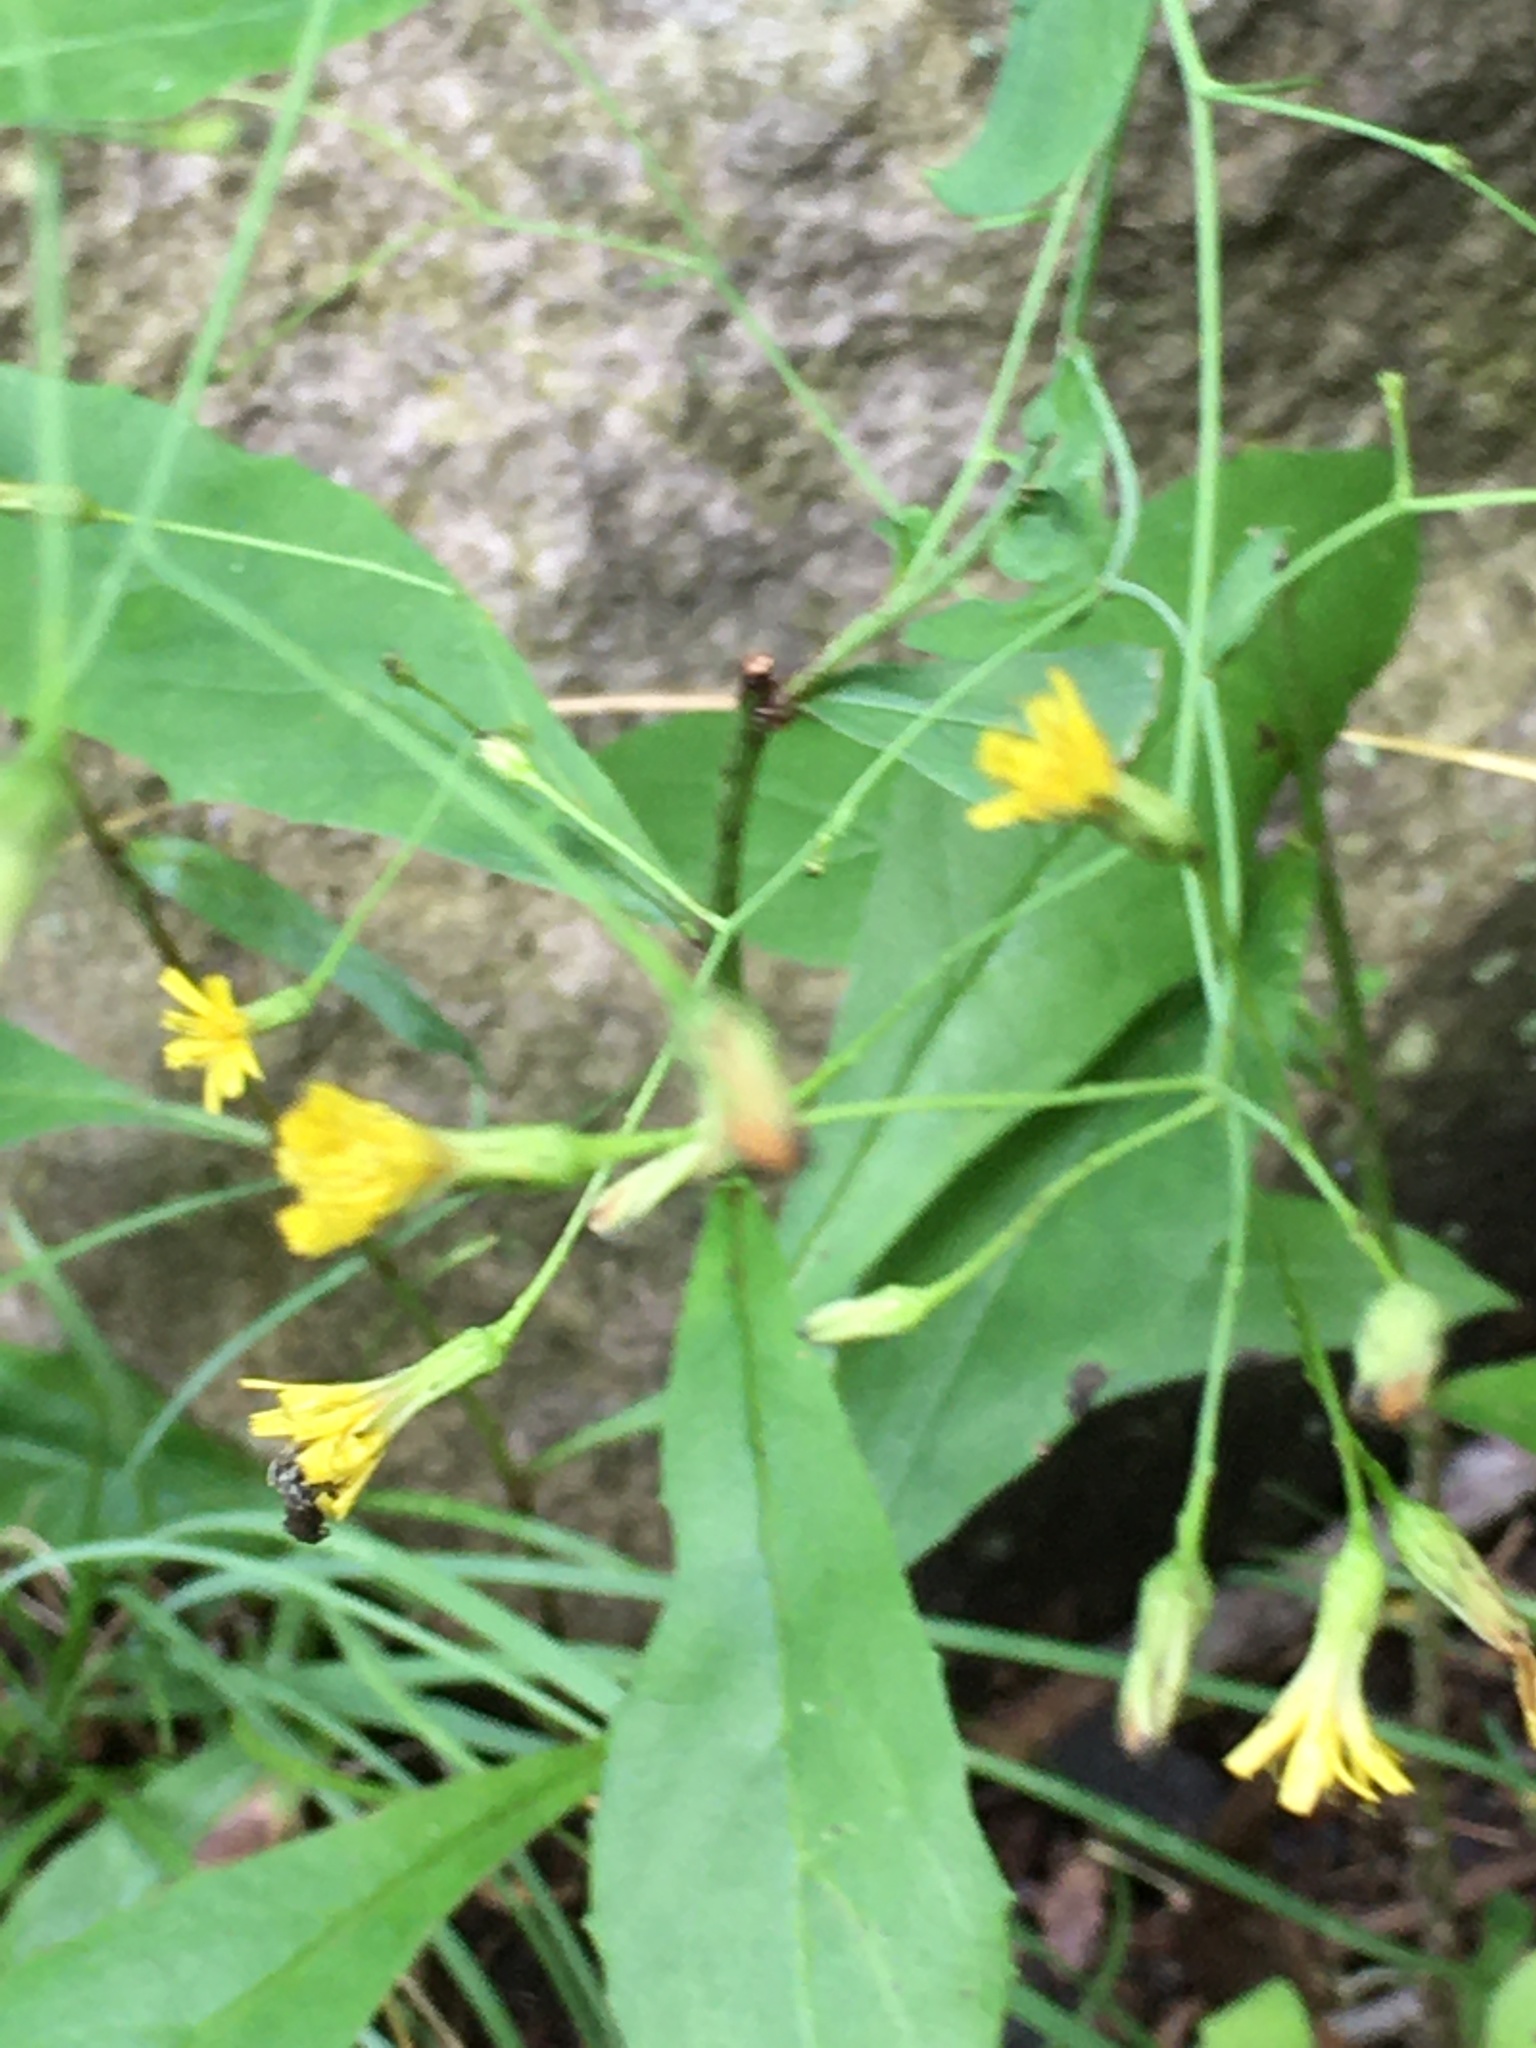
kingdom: Plantae
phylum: Tracheophyta
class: Magnoliopsida
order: Asterales
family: Asteraceae
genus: Hieracium
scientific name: Hieracium paniculatum
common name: Allegheny hawkweed
